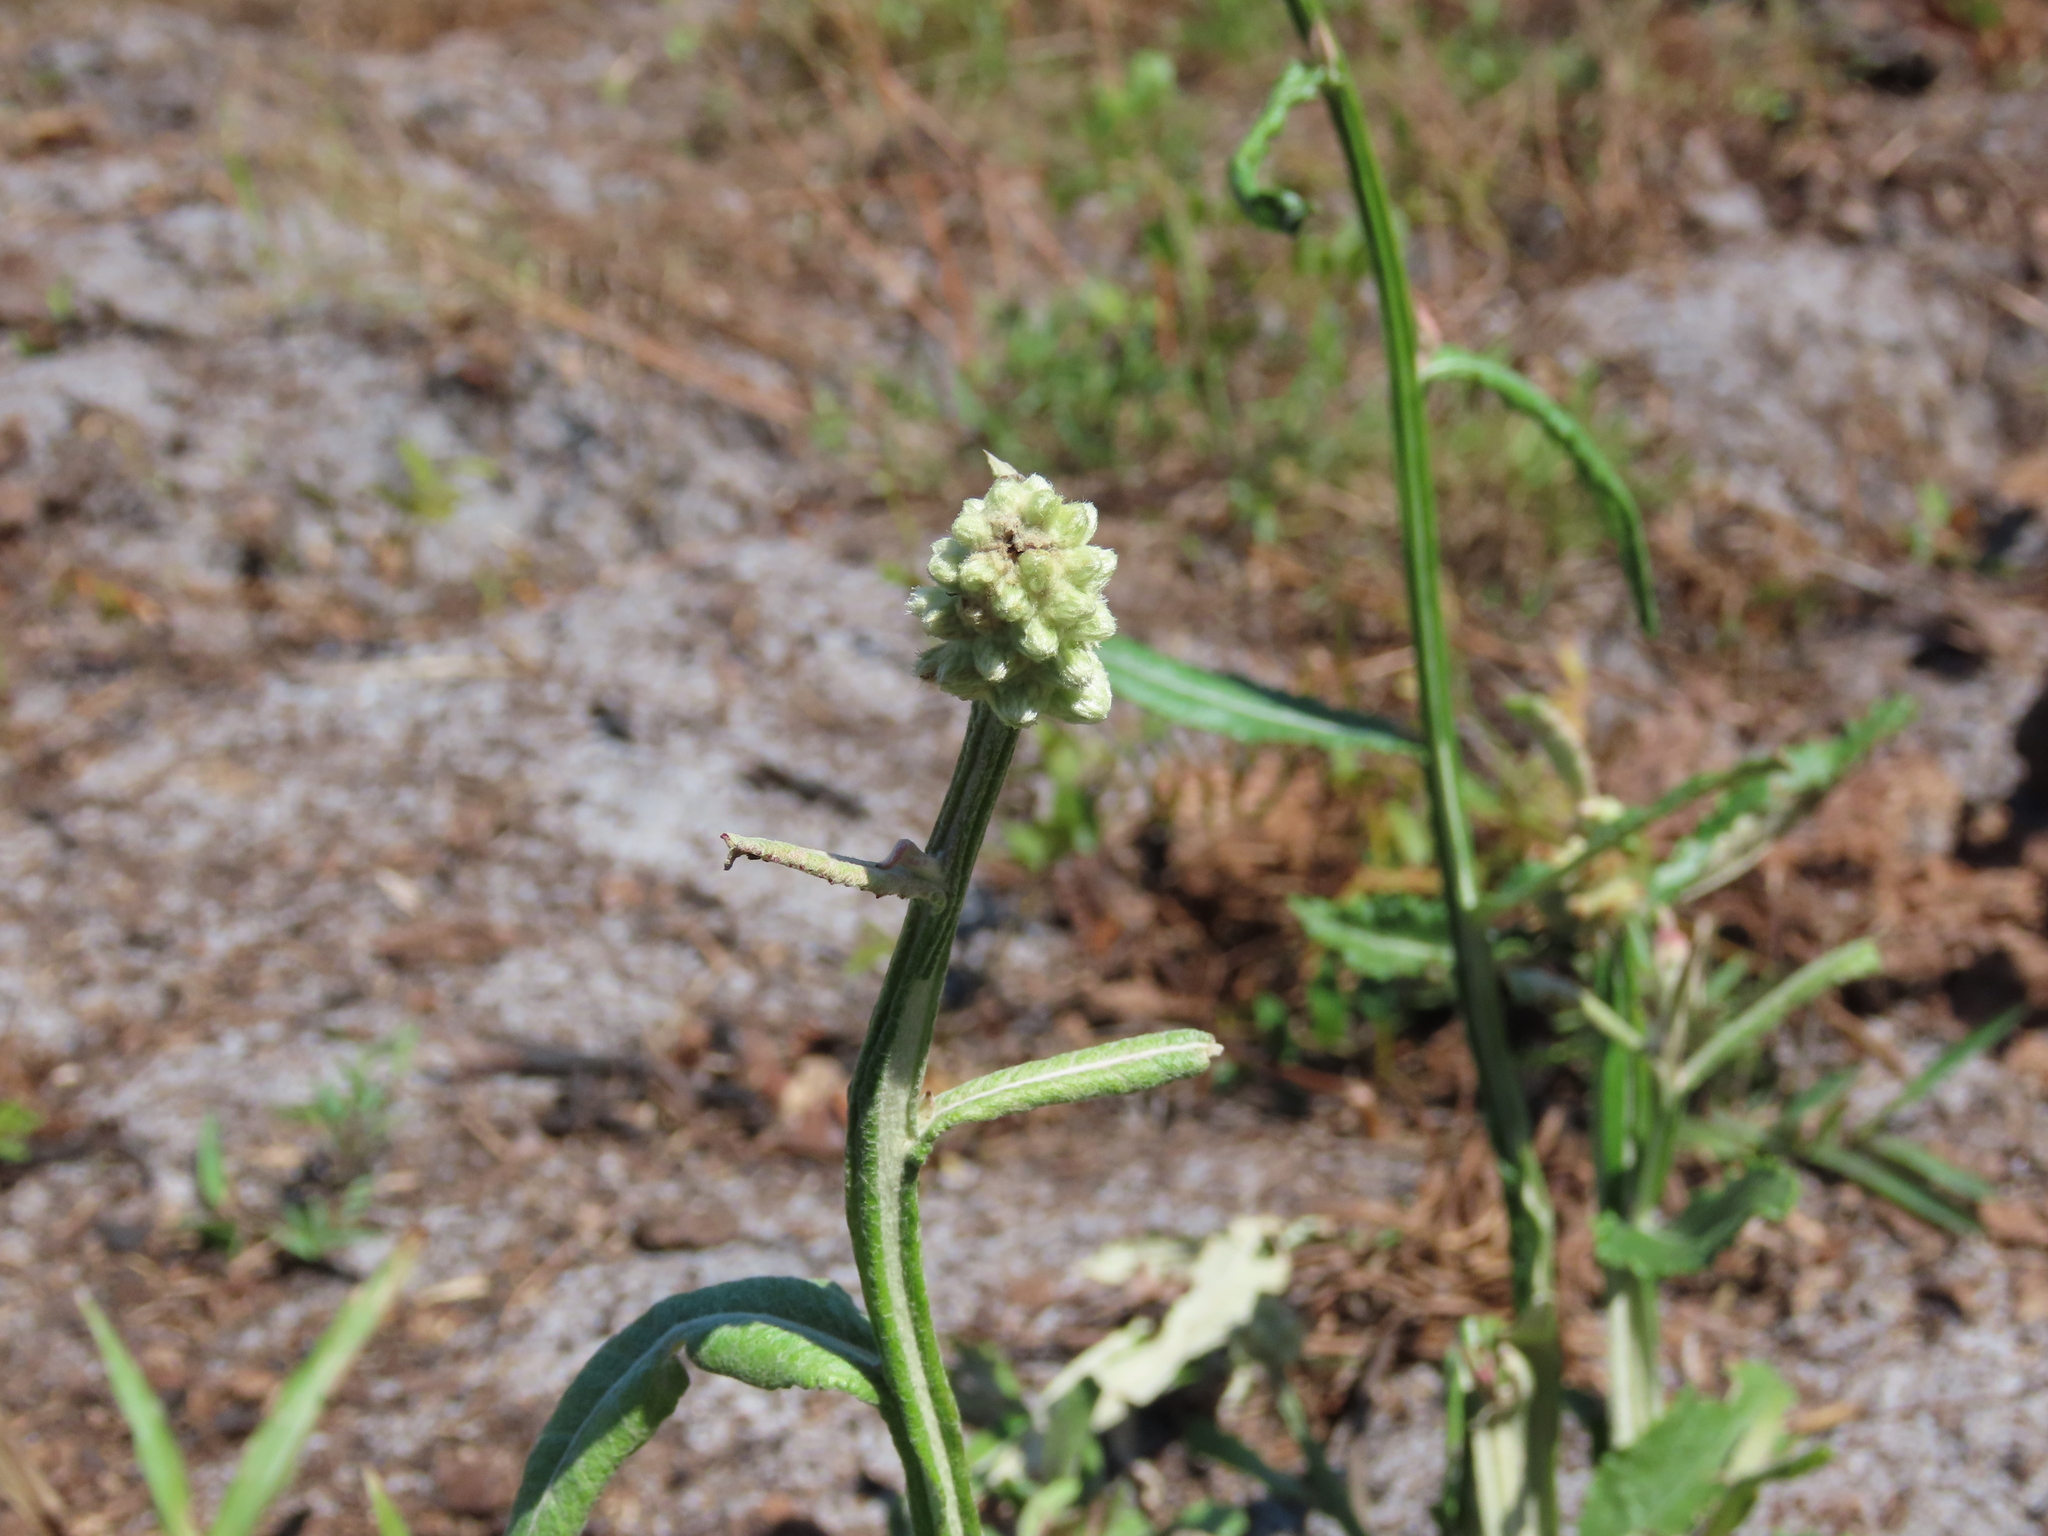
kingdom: Plantae
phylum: Tracheophyta
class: Magnoliopsida
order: Asterales
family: Asteraceae
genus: Pterocaulon
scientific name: Pterocaulon pycnostachyum
